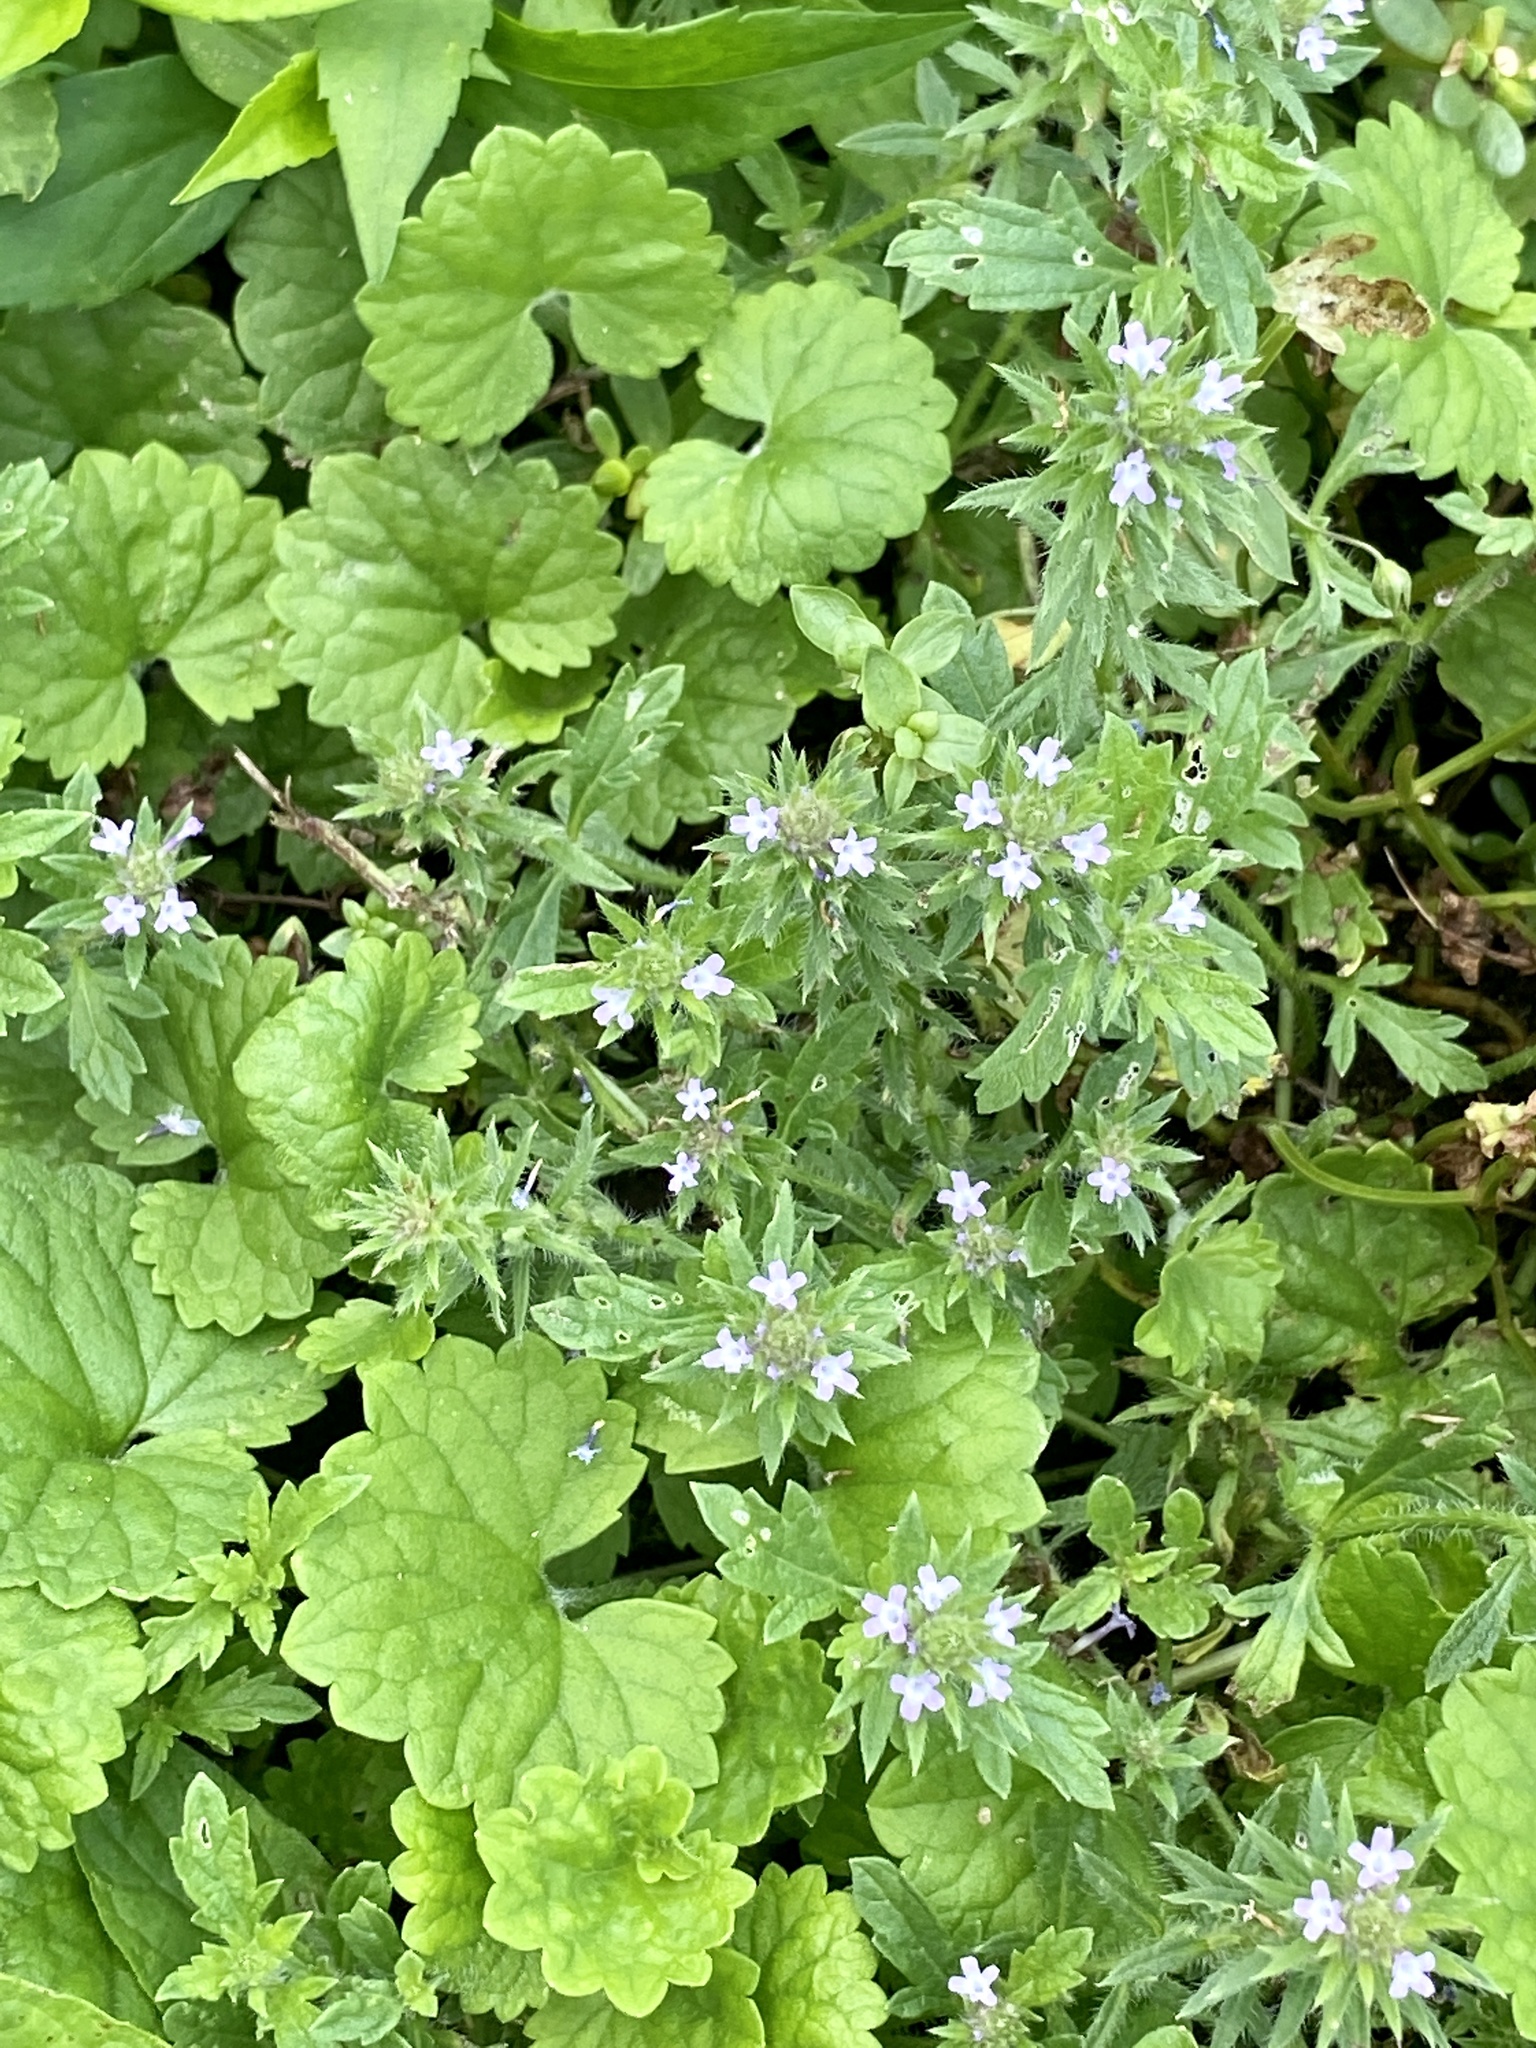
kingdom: Plantae
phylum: Tracheophyta
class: Magnoliopsida
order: Lamiales
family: Verbenaceae
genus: Verbena
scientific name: Verbena bracteata
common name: Bracted vervain
